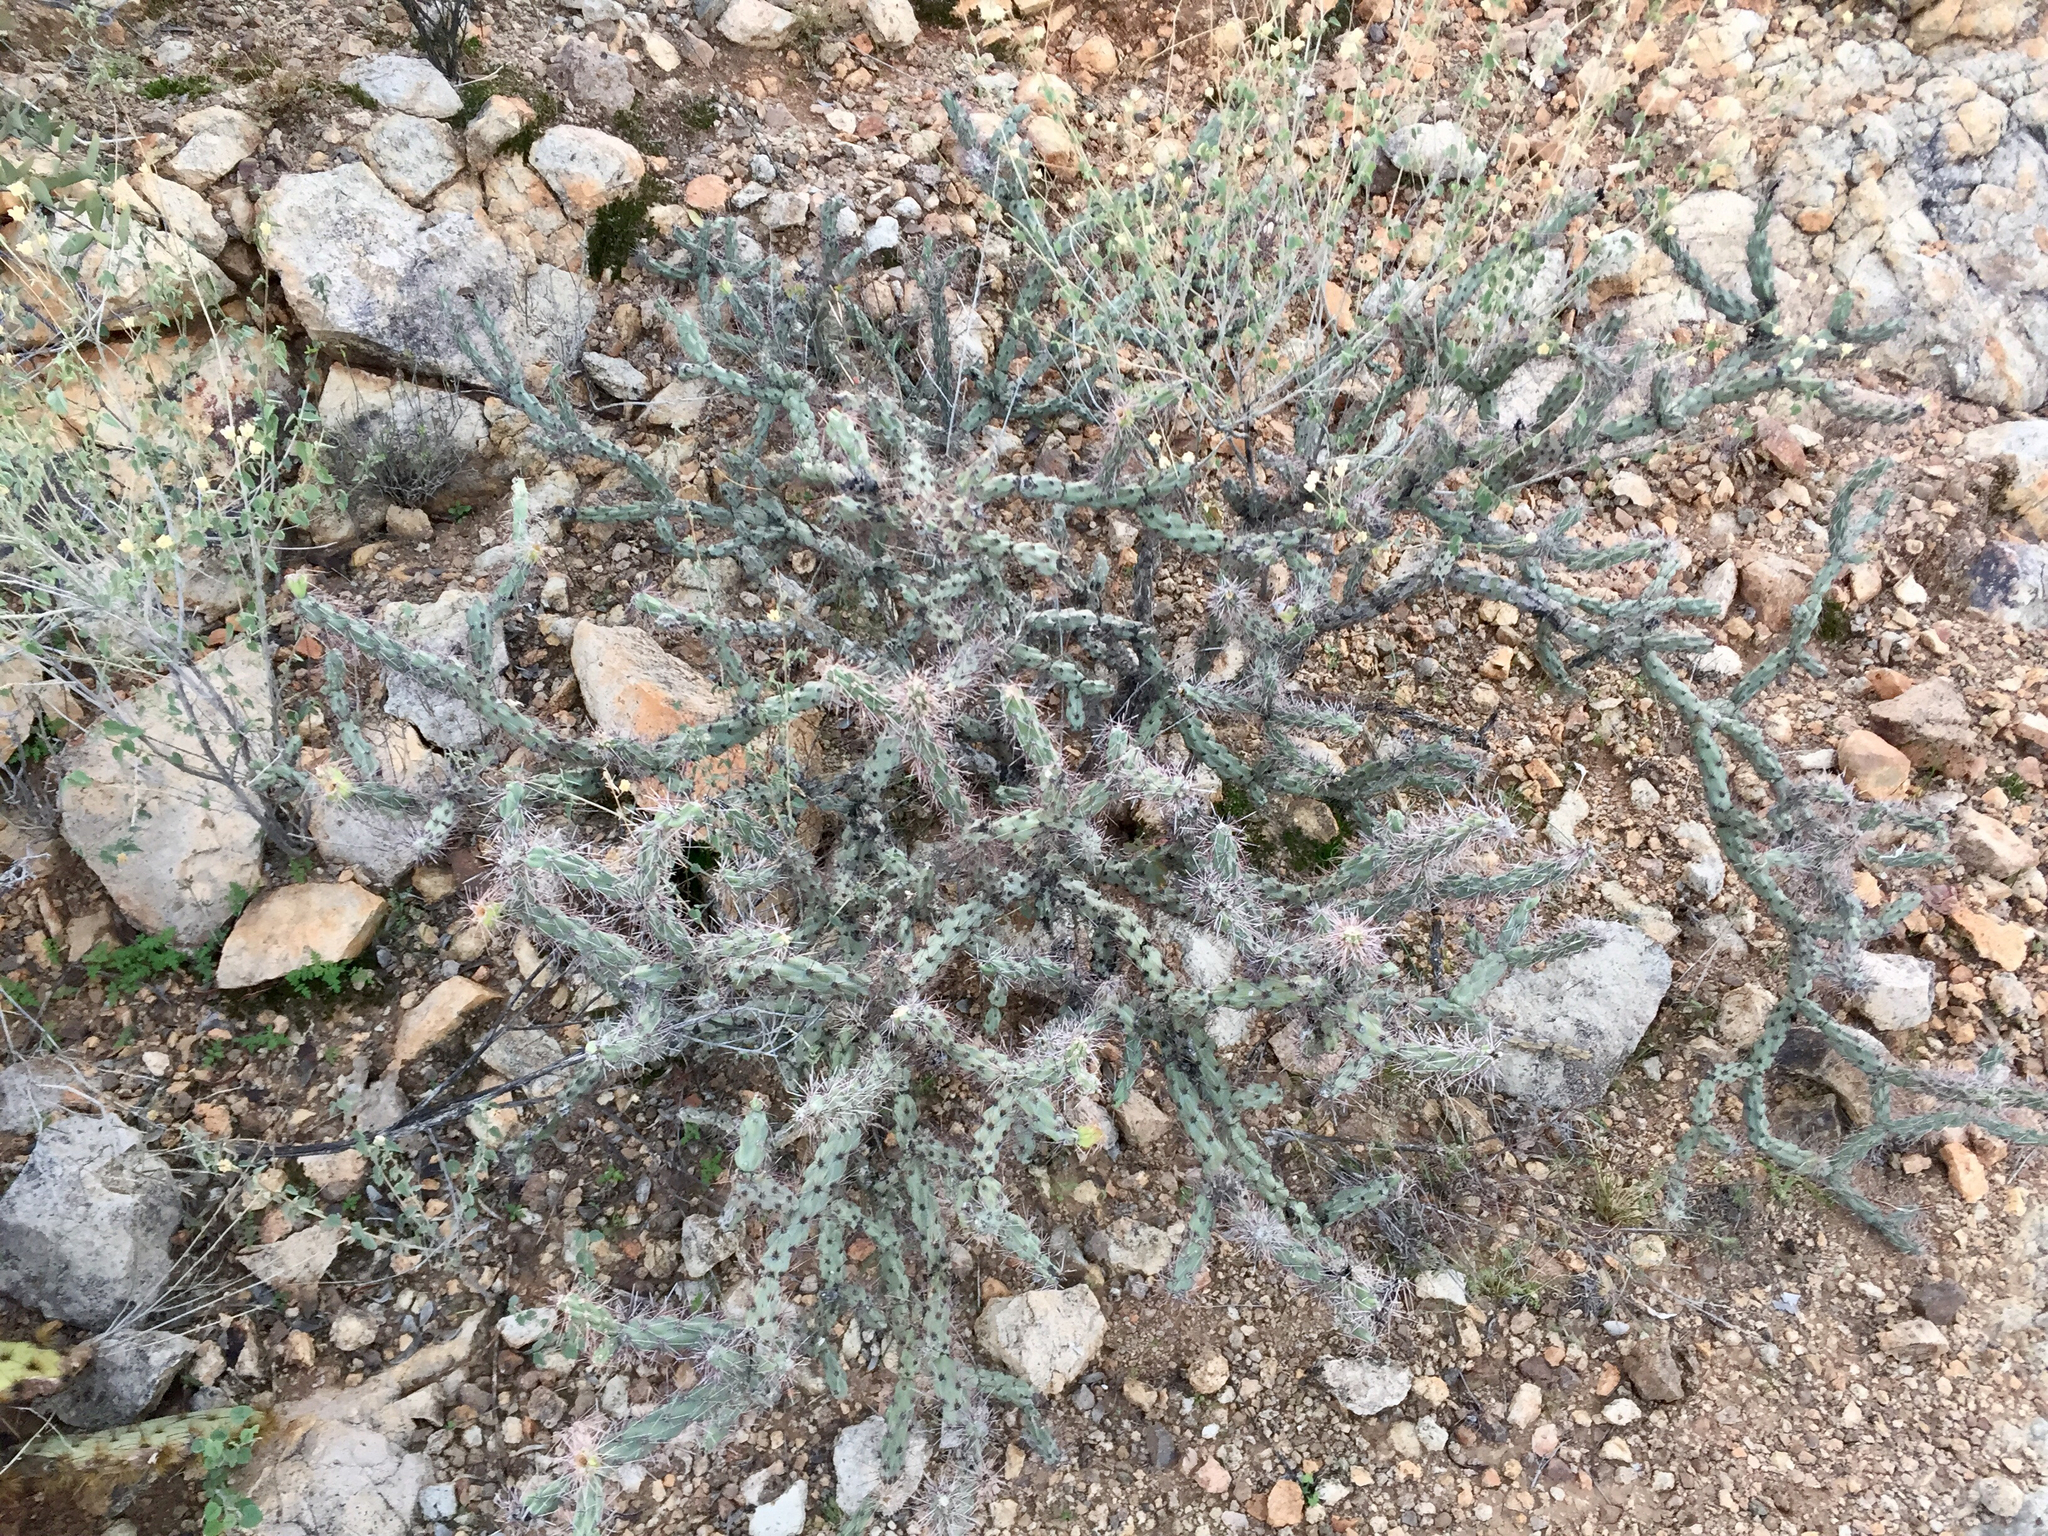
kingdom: Plantae
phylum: Tracheophyta
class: Magnoliopsida
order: Caryophyllales
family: Cactaceae
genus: Cylindropuntia
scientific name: Cylindropuntia acanthocarpa
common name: Buckhorn cholla
